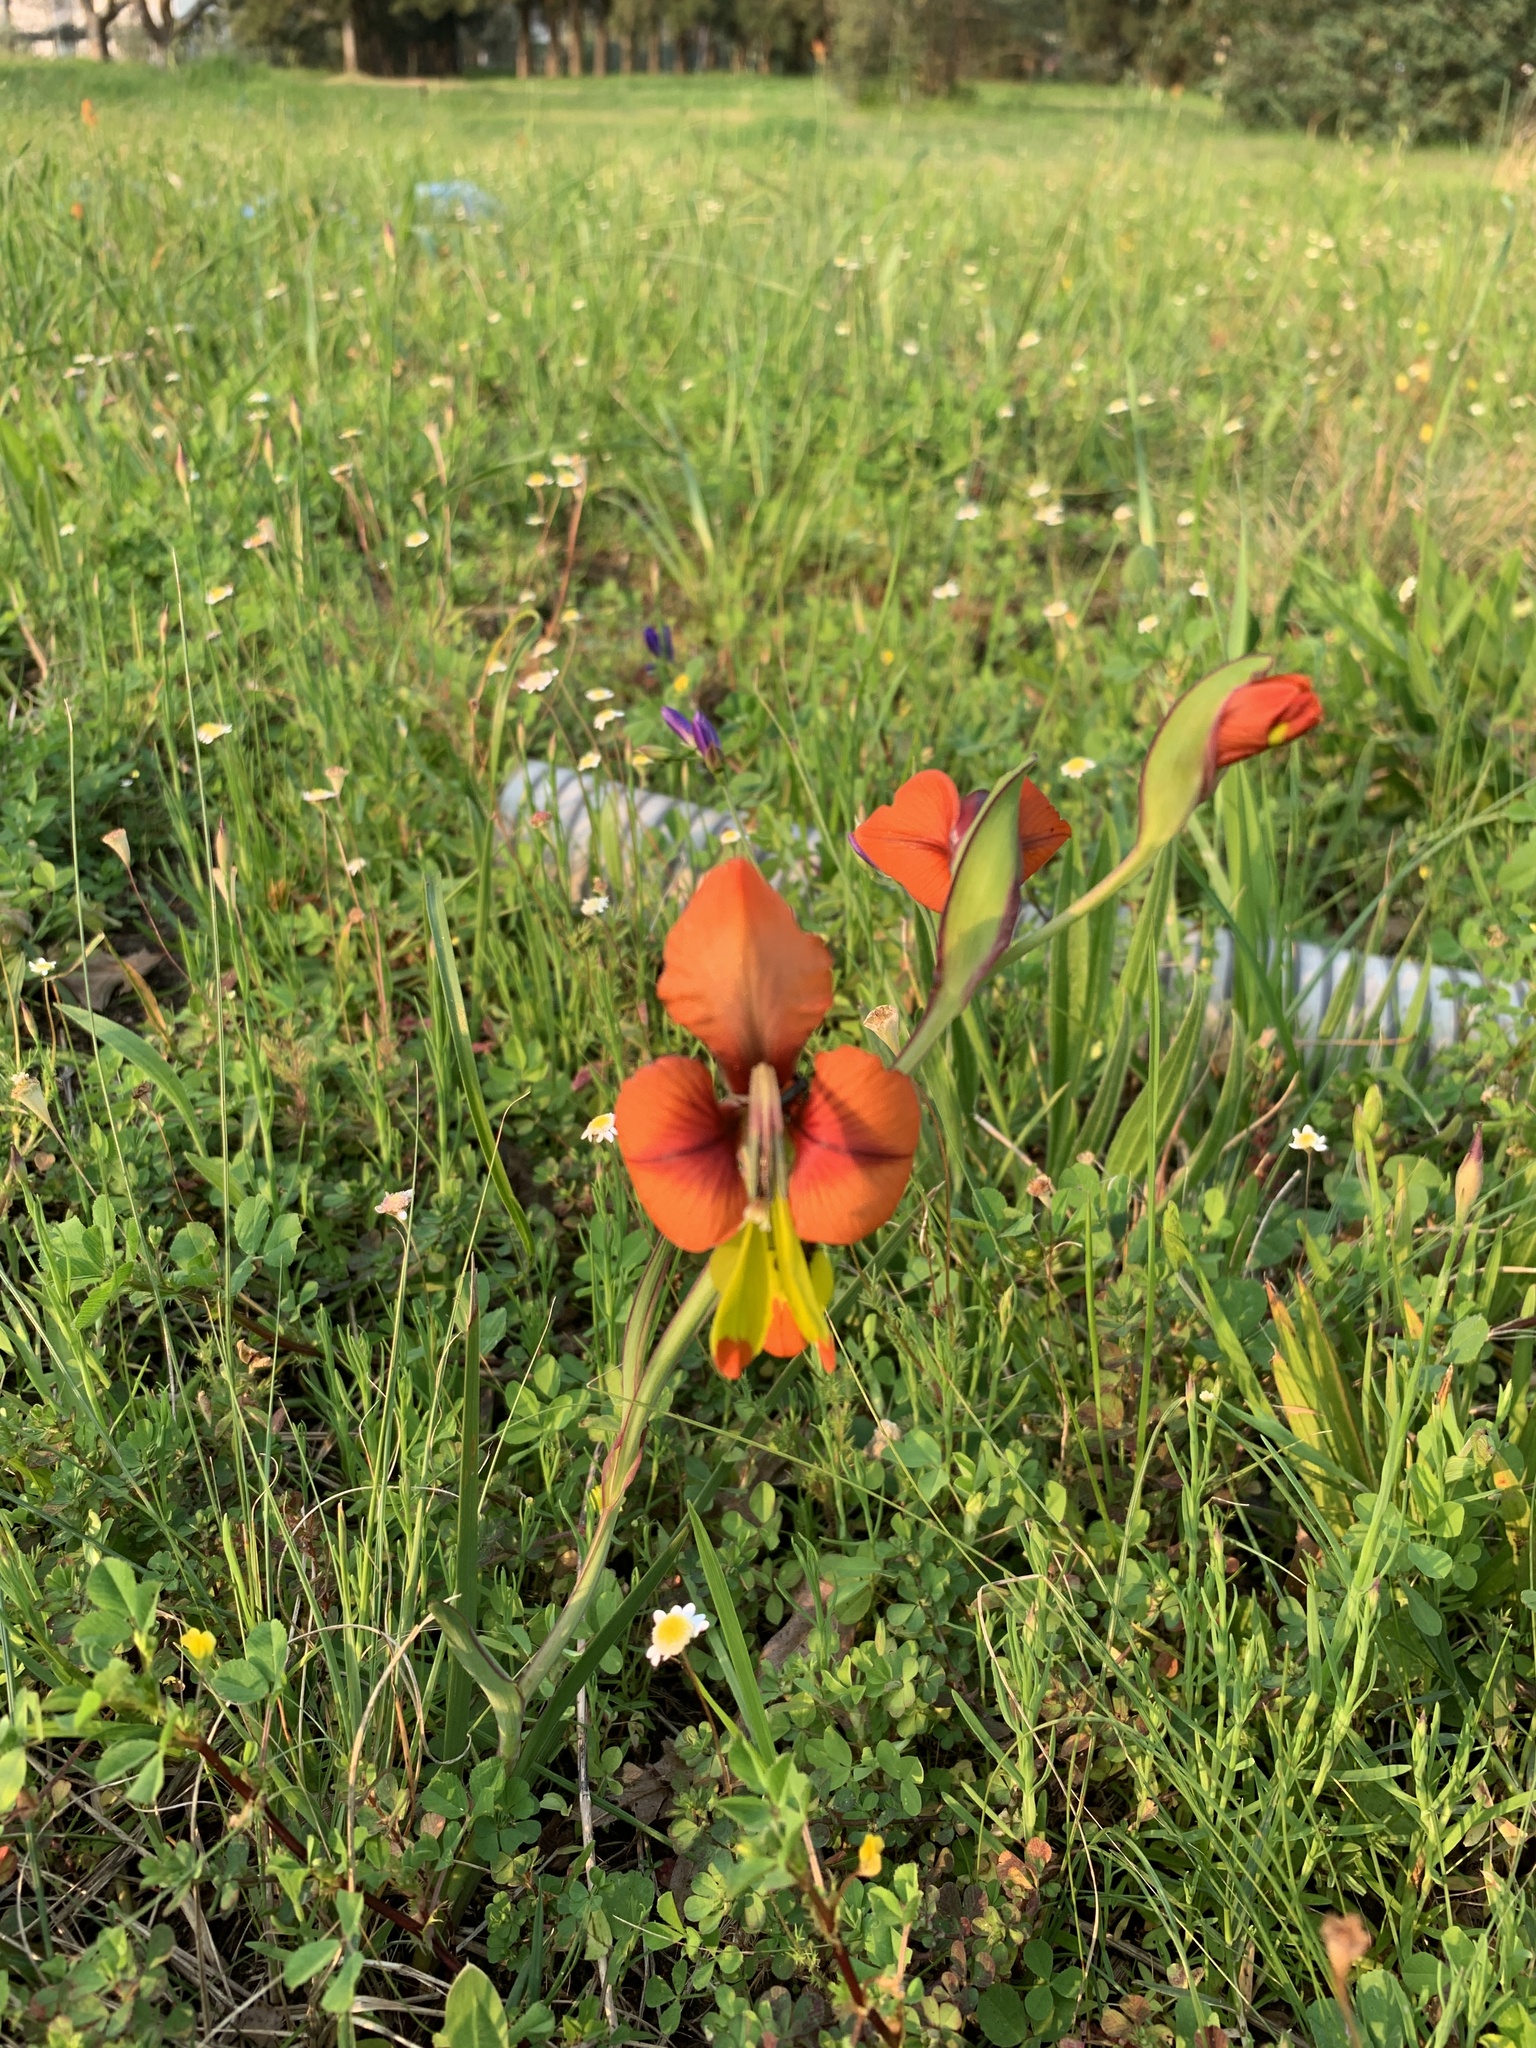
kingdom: Plantae
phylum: Tracheophyta
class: Liliopsida
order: Asparagales
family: Iridaceae
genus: Gladiolus
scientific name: Gladiolus alatus
